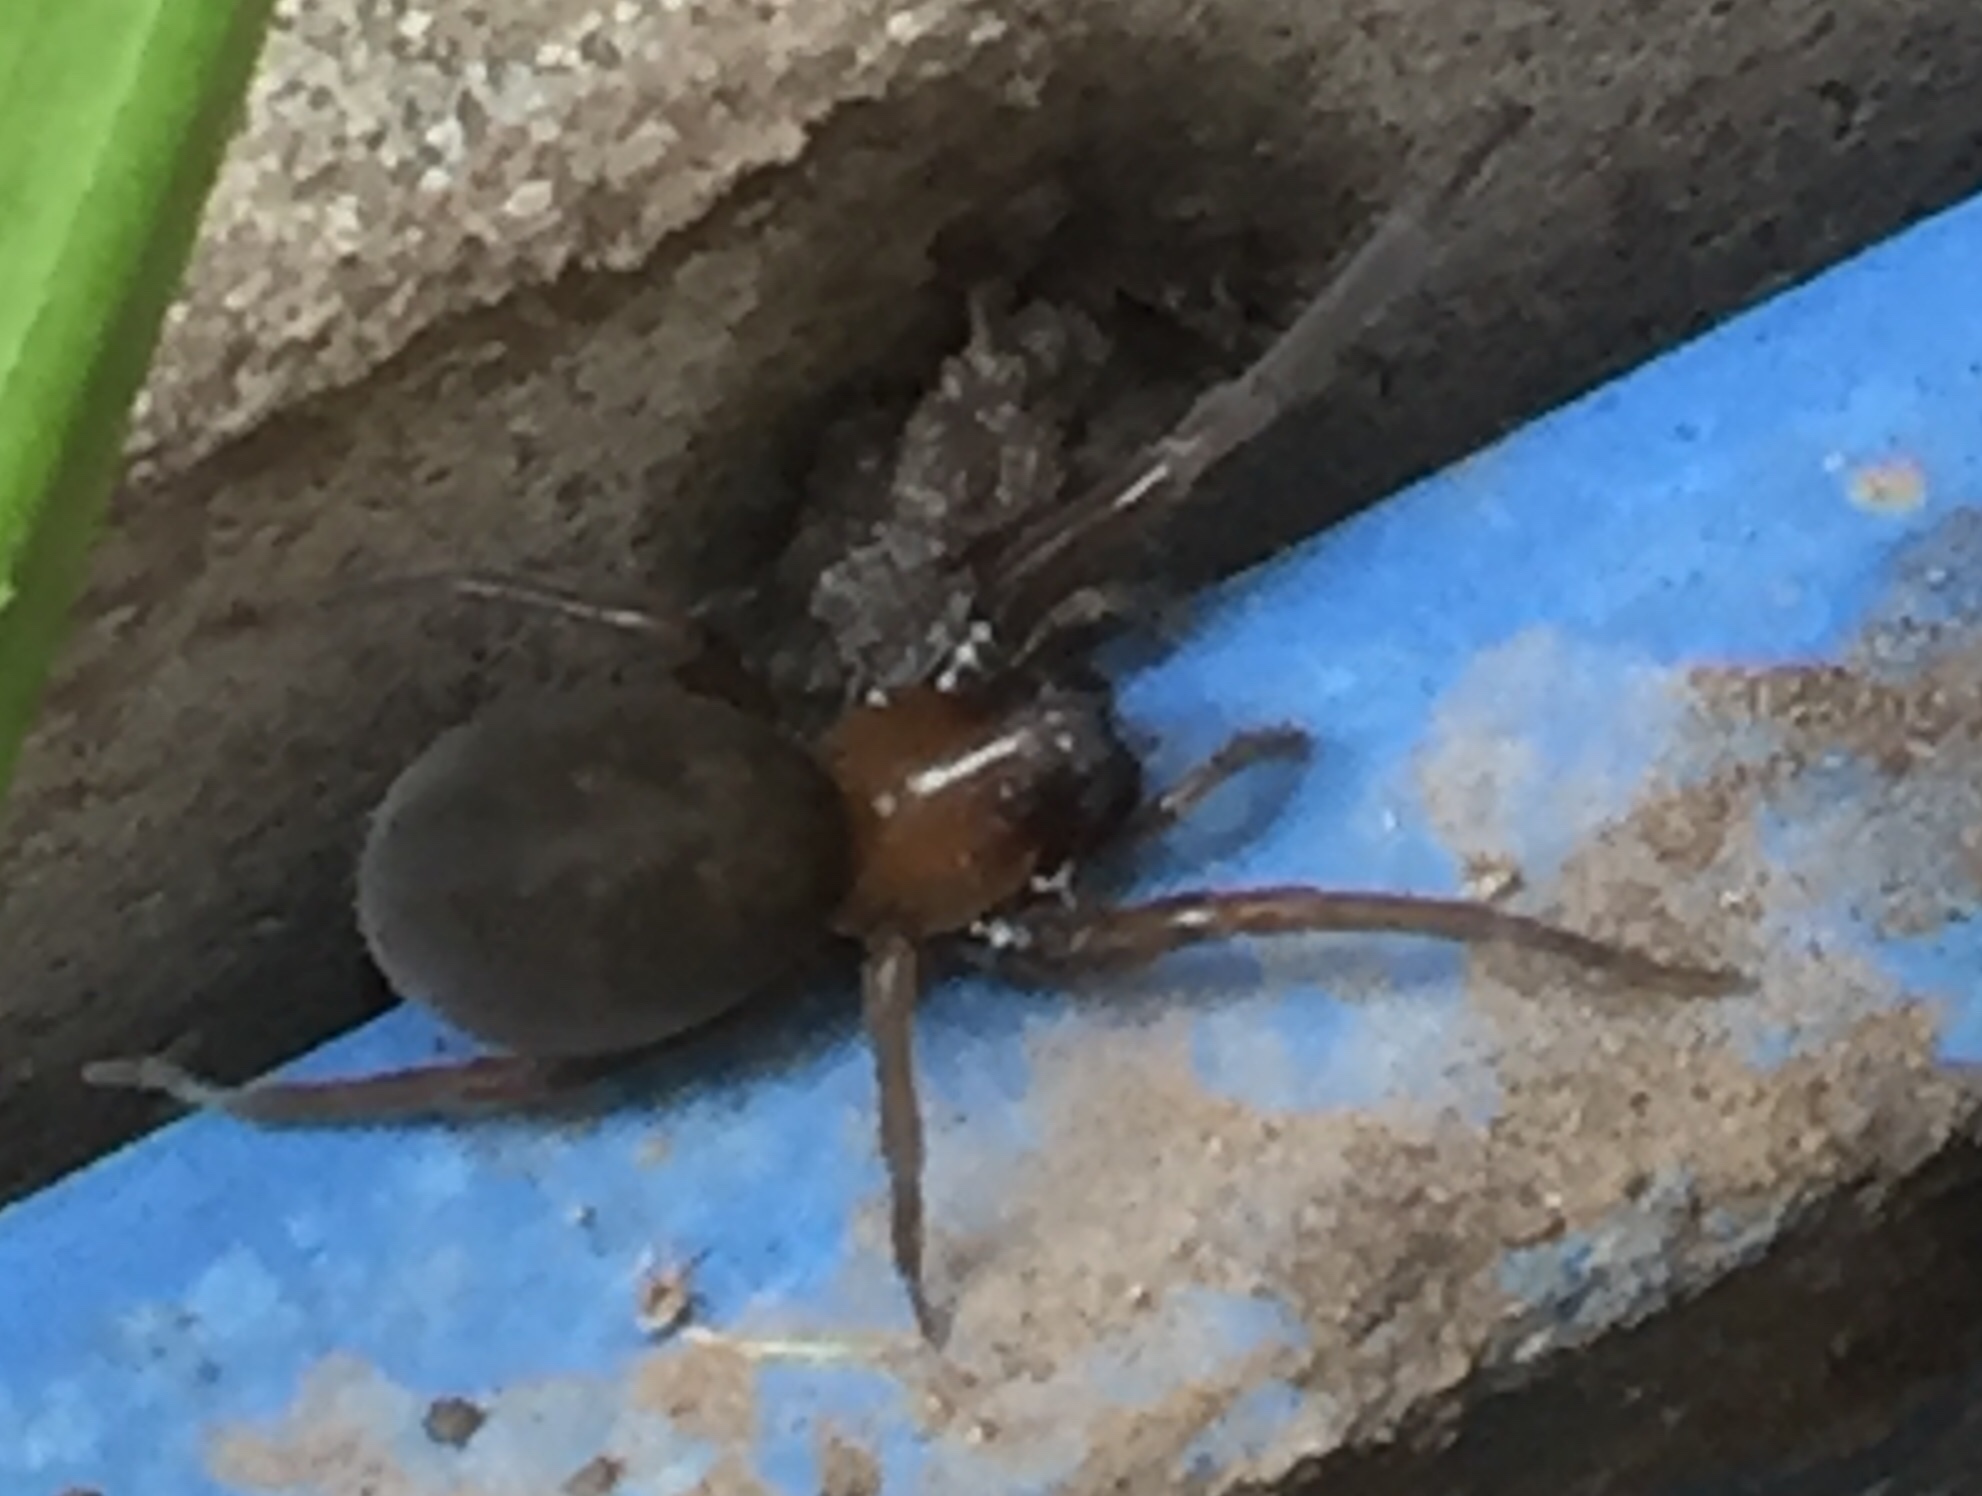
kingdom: Animalia
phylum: Arthropoda
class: Arachnida
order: Araneae
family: Desidae
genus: Metaltella
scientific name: Metaltella simoni
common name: Cribellate spider
